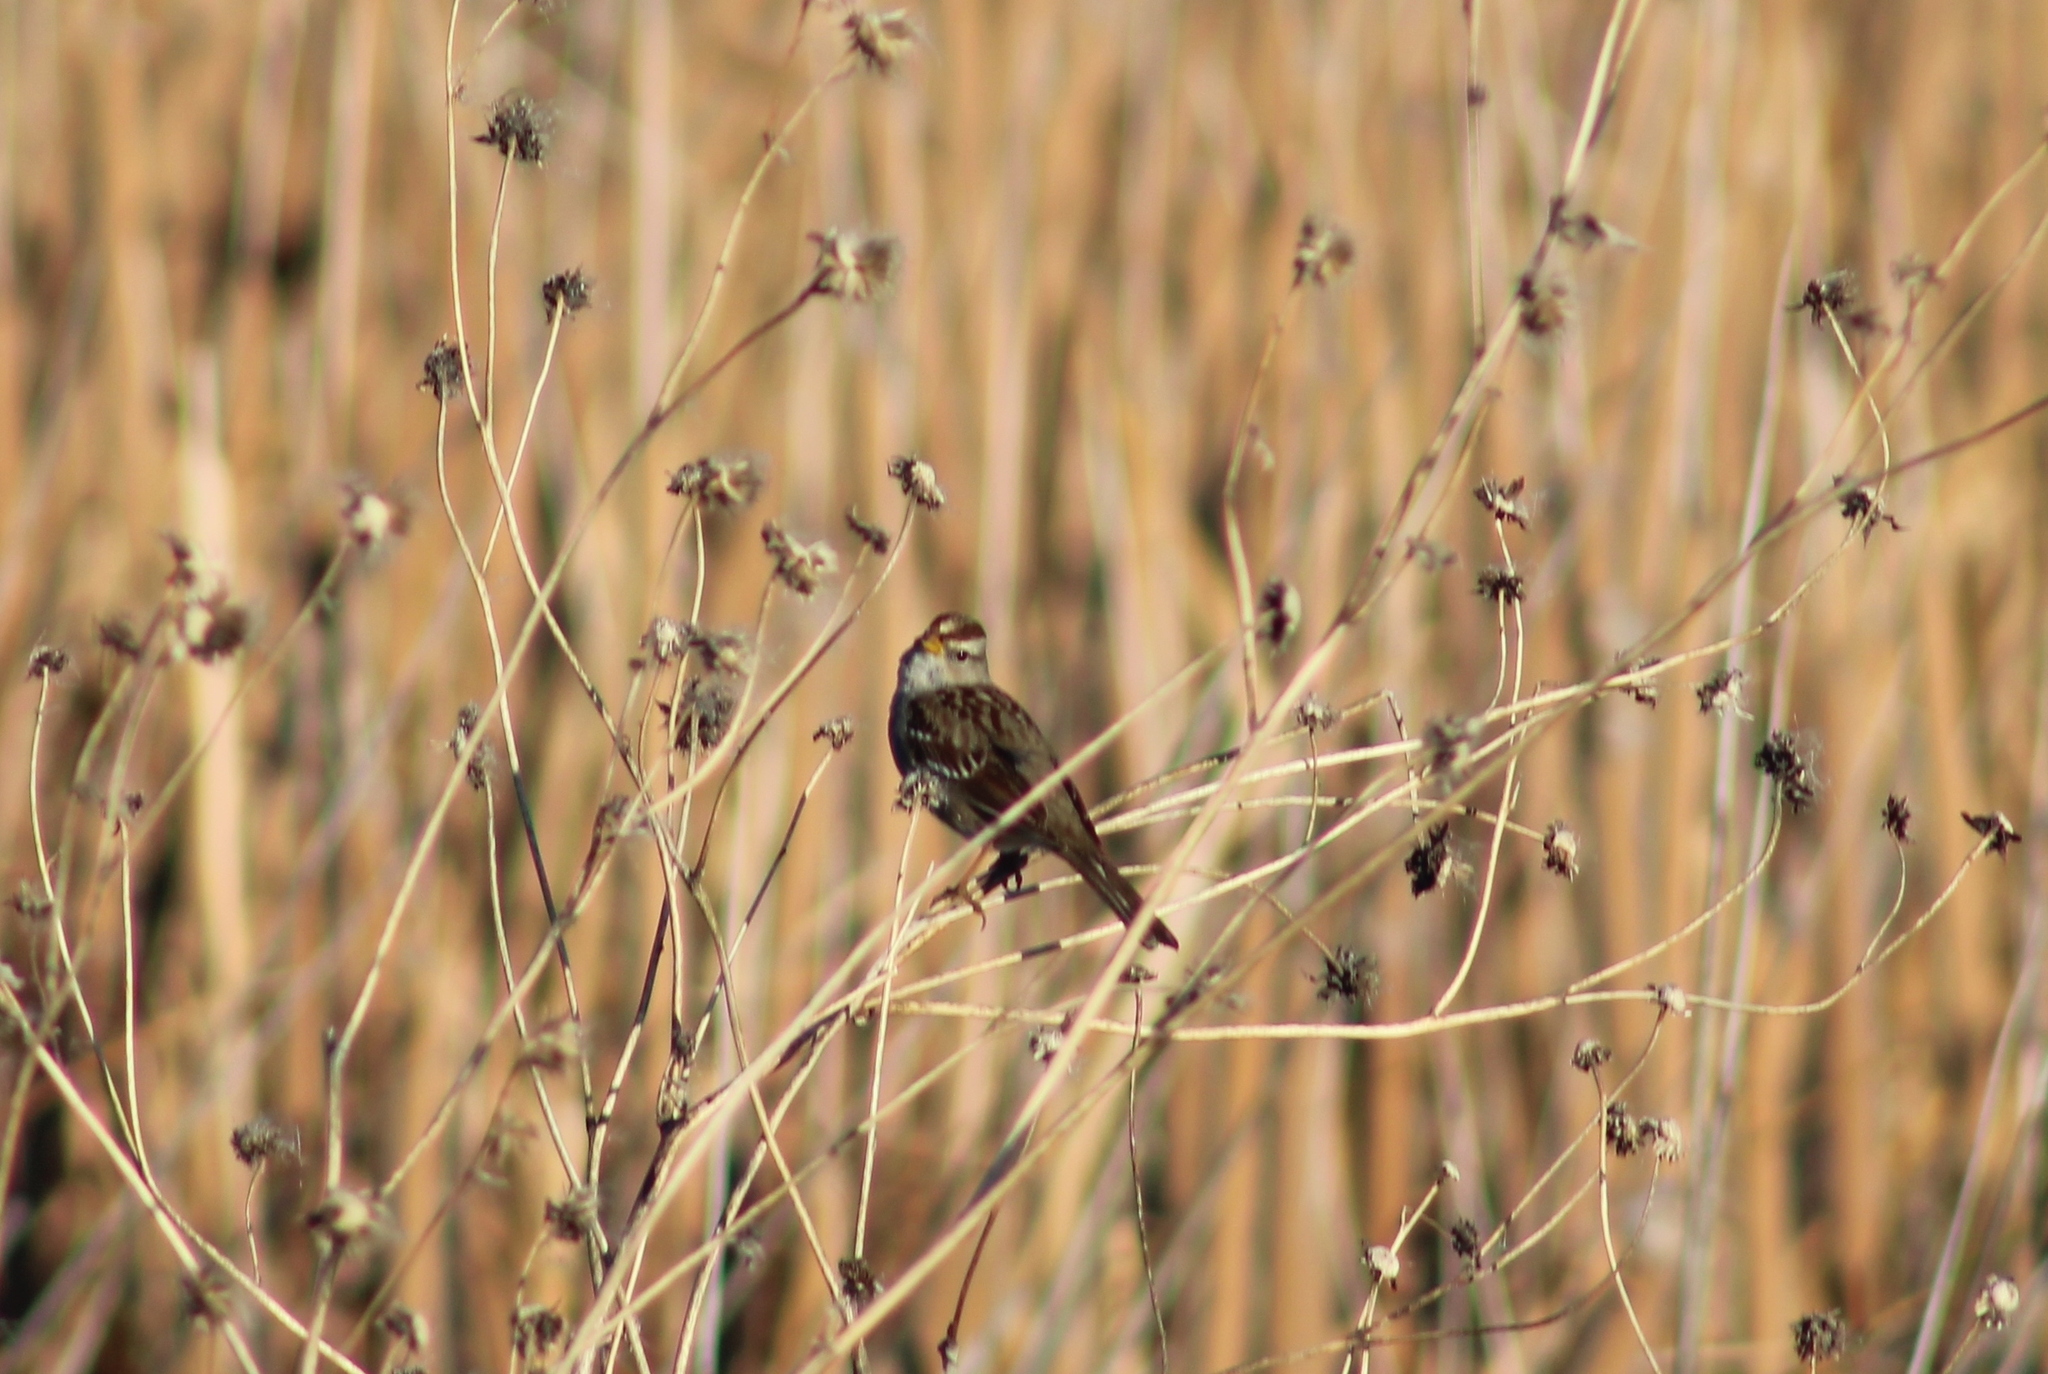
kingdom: Animalia
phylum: Chordata
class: Aves
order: Passeriformes
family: Passerellidae
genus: Zonotrichia
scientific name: Zonotrichia leucophrys
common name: White-crowned sparrow
